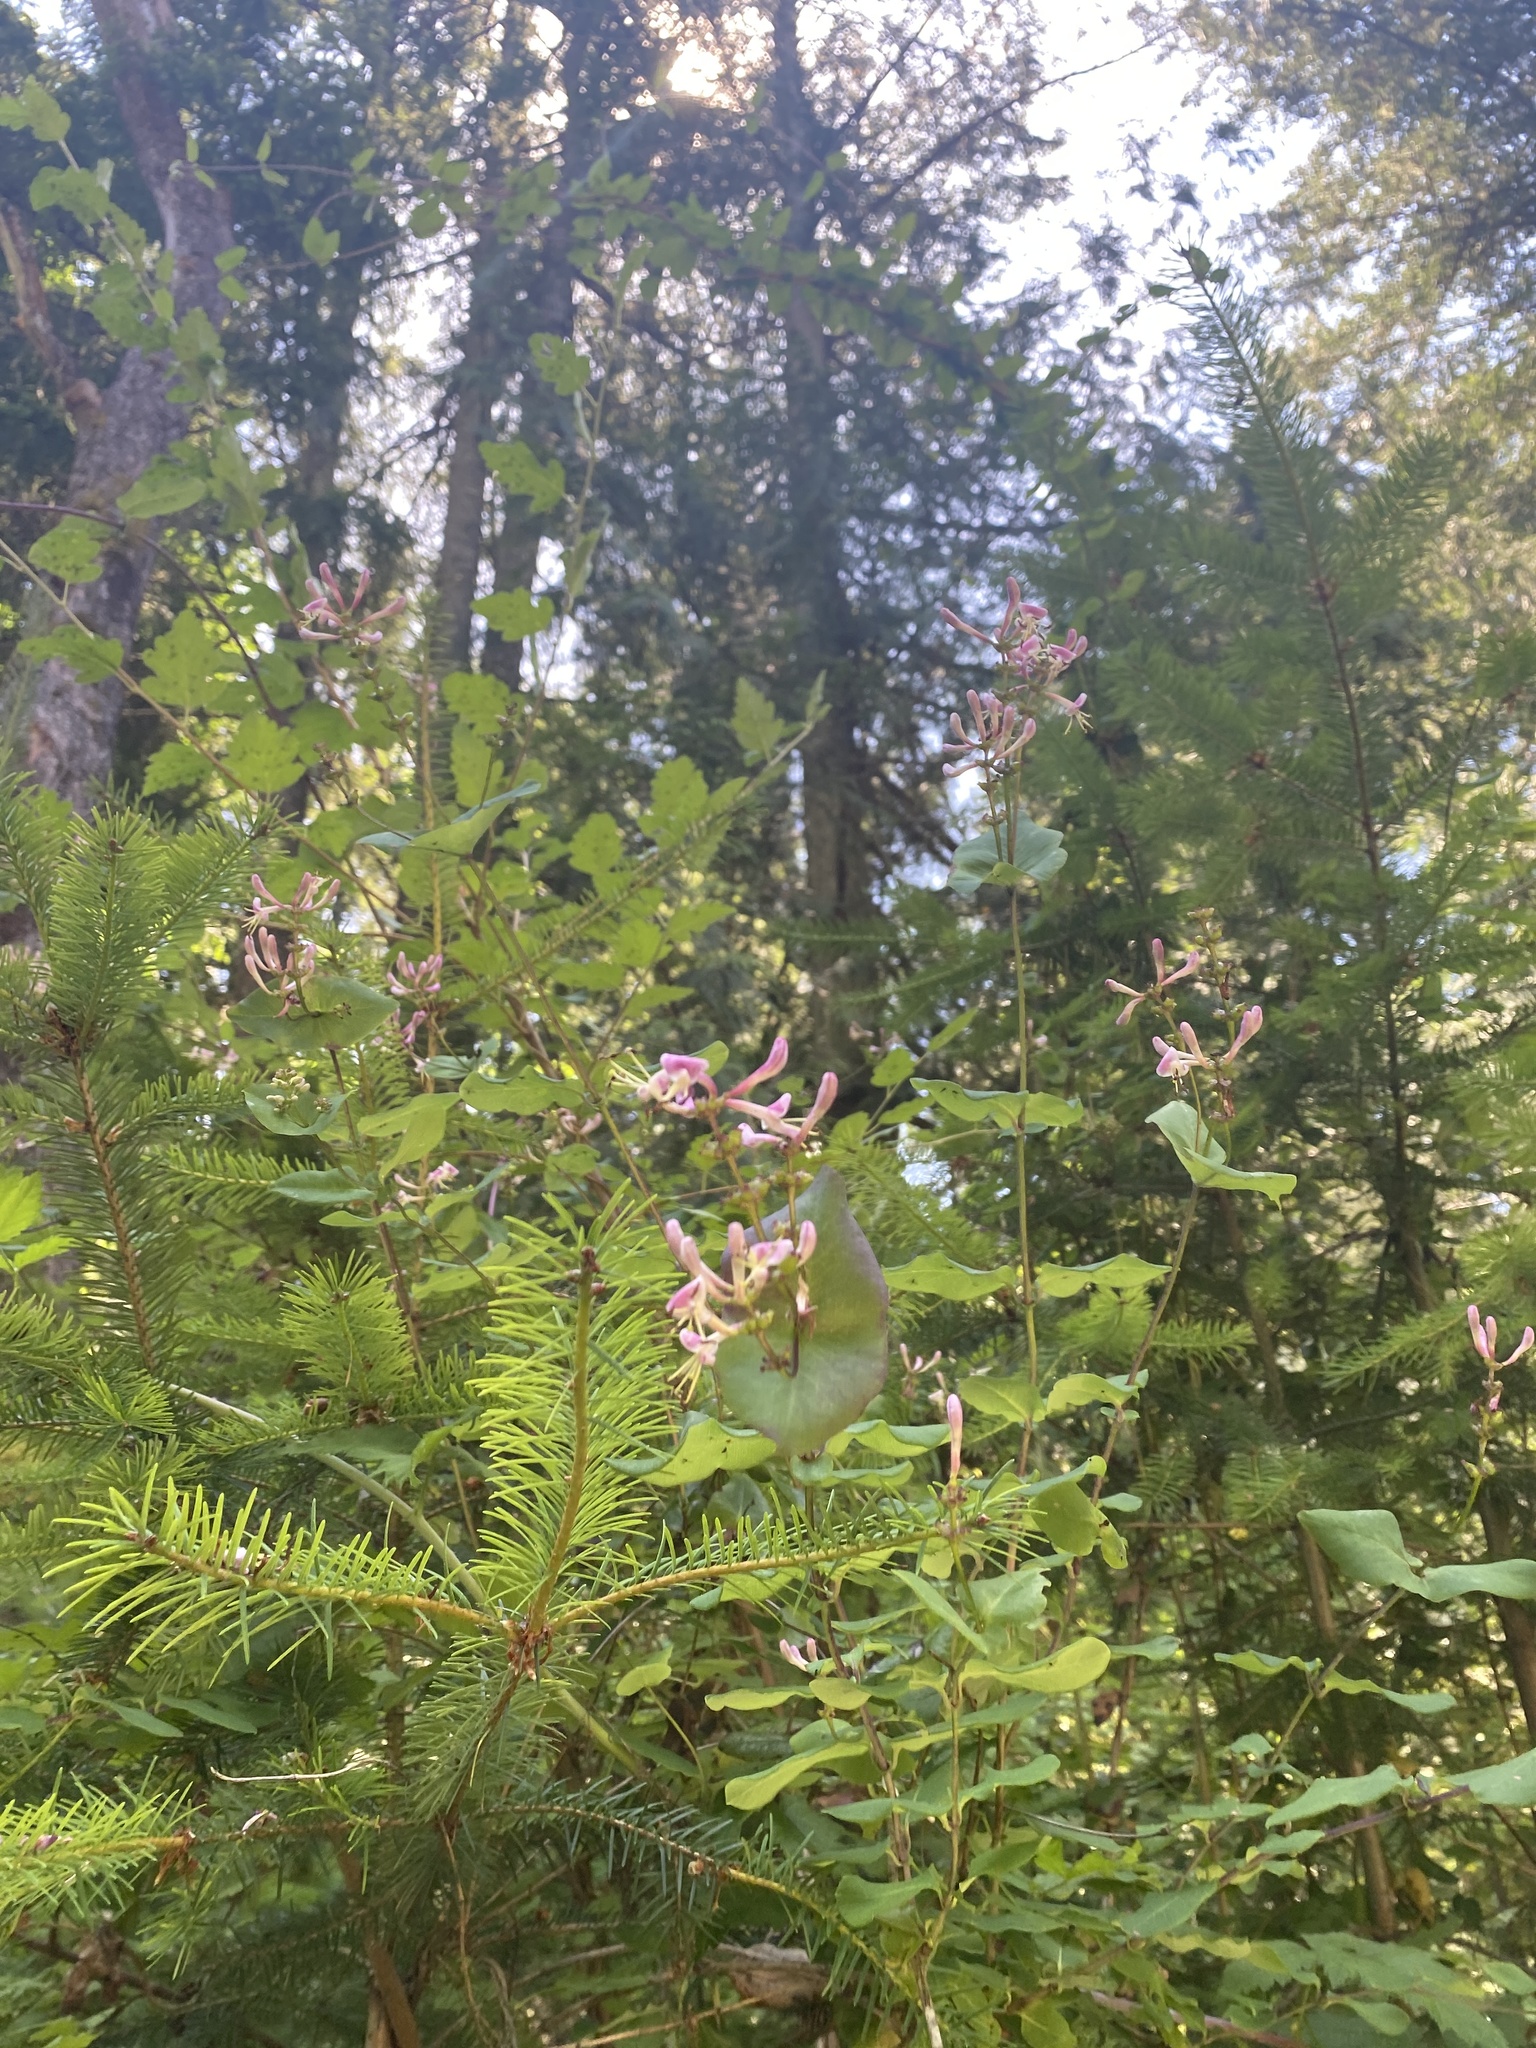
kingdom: Plantae
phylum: Tracheophyta
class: Magnoliopsida
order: Dipsacales
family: Caprifoliaceae
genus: Lonicera
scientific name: Lonicera hispidula
